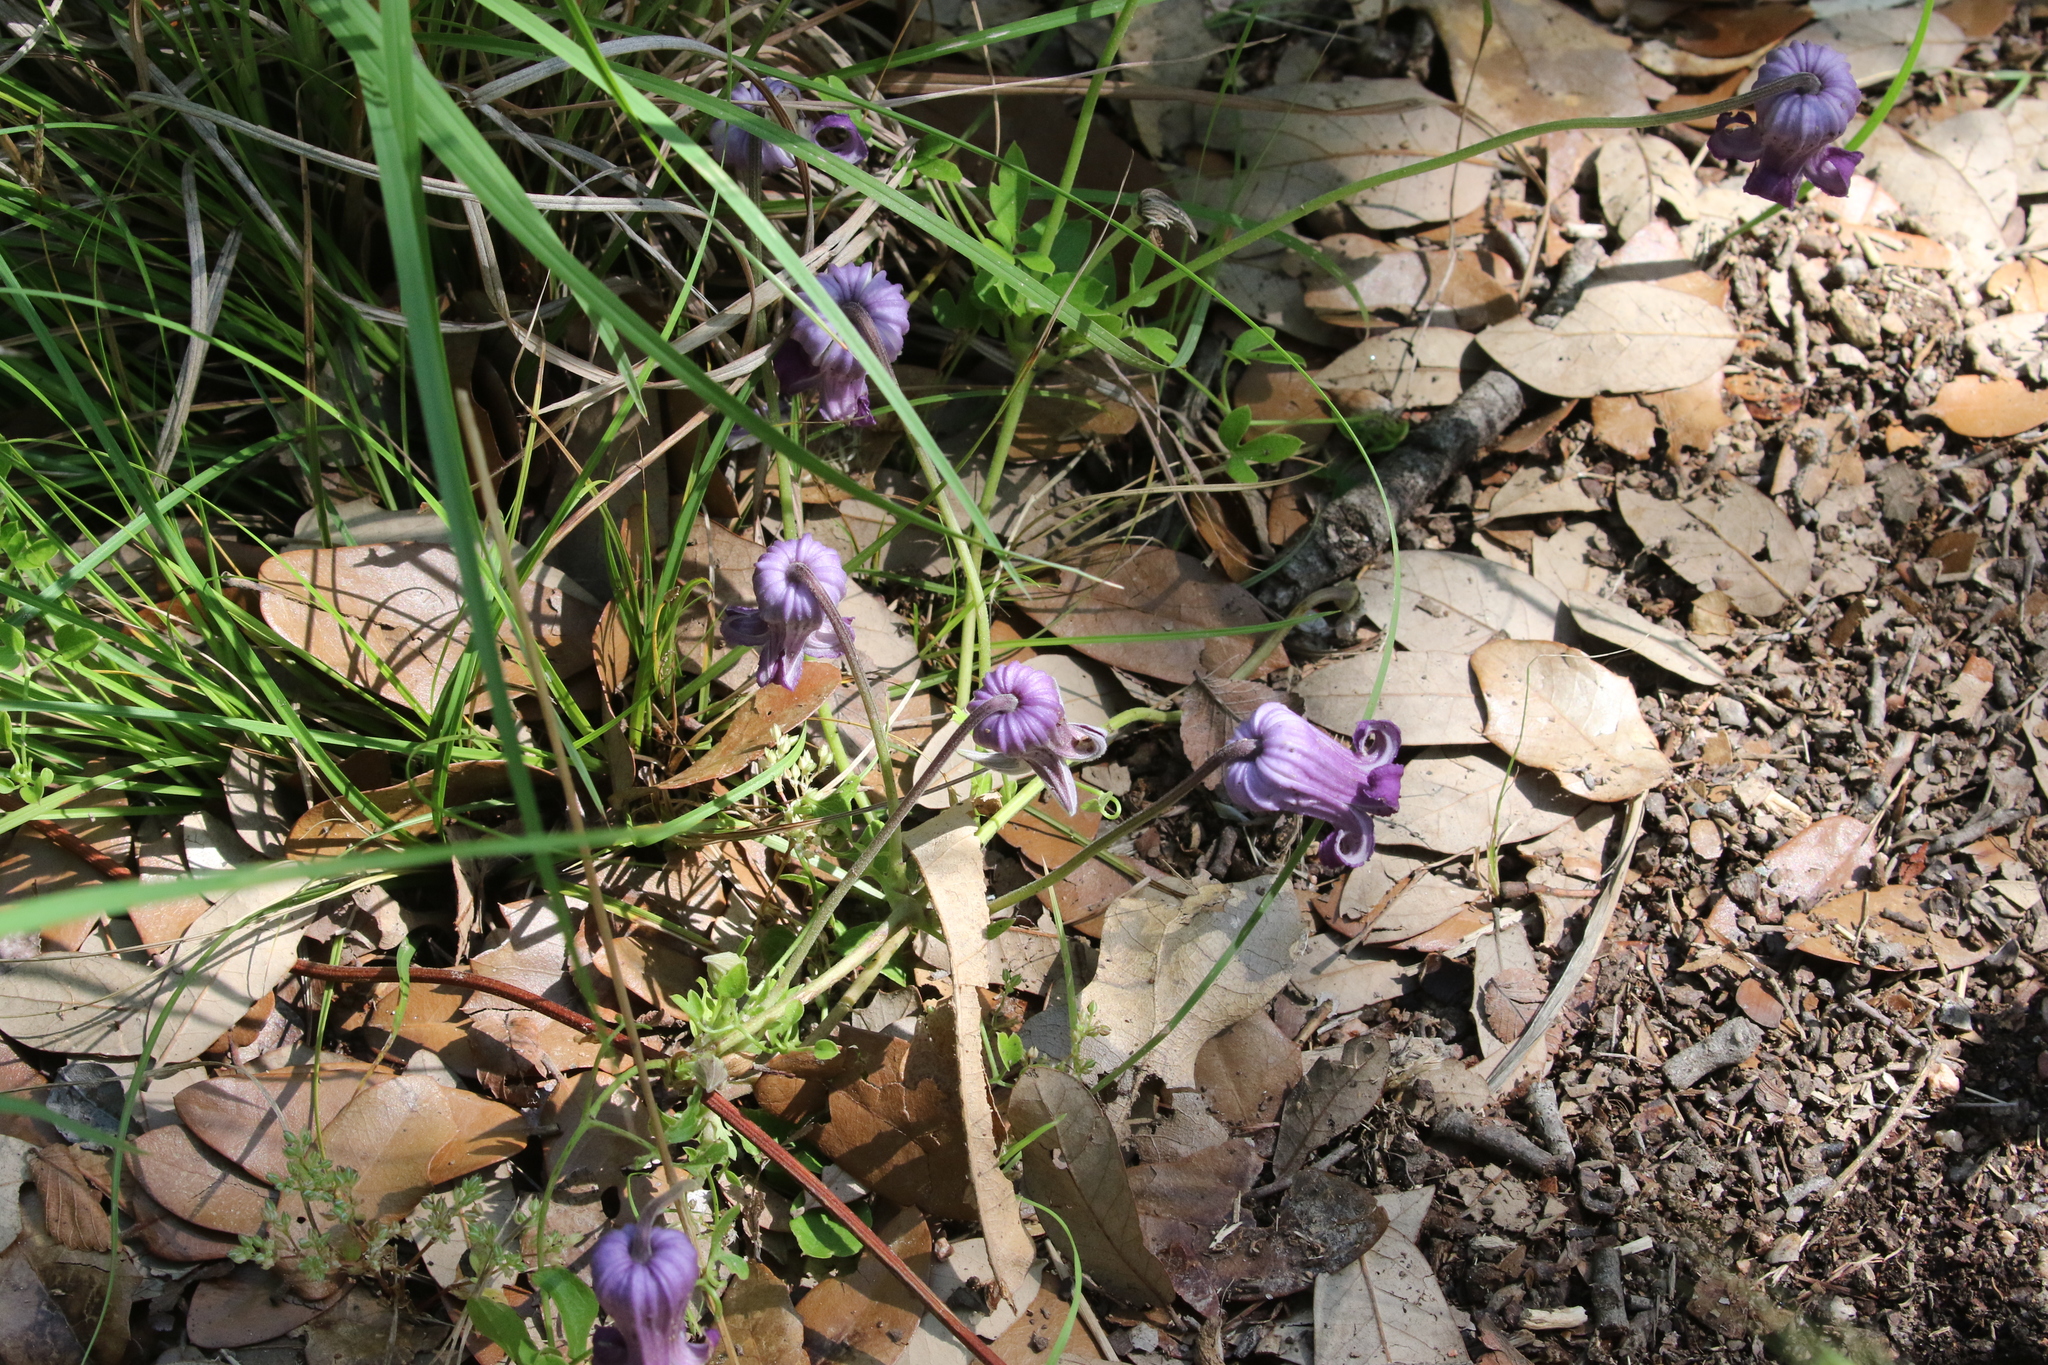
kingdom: Plantae
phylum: Tracheophyta
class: Magnoliopsida
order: Ranunculales
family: Ranunculaceae
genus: Clematis
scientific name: Clematis pitcheri
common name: Bellflower clematis
